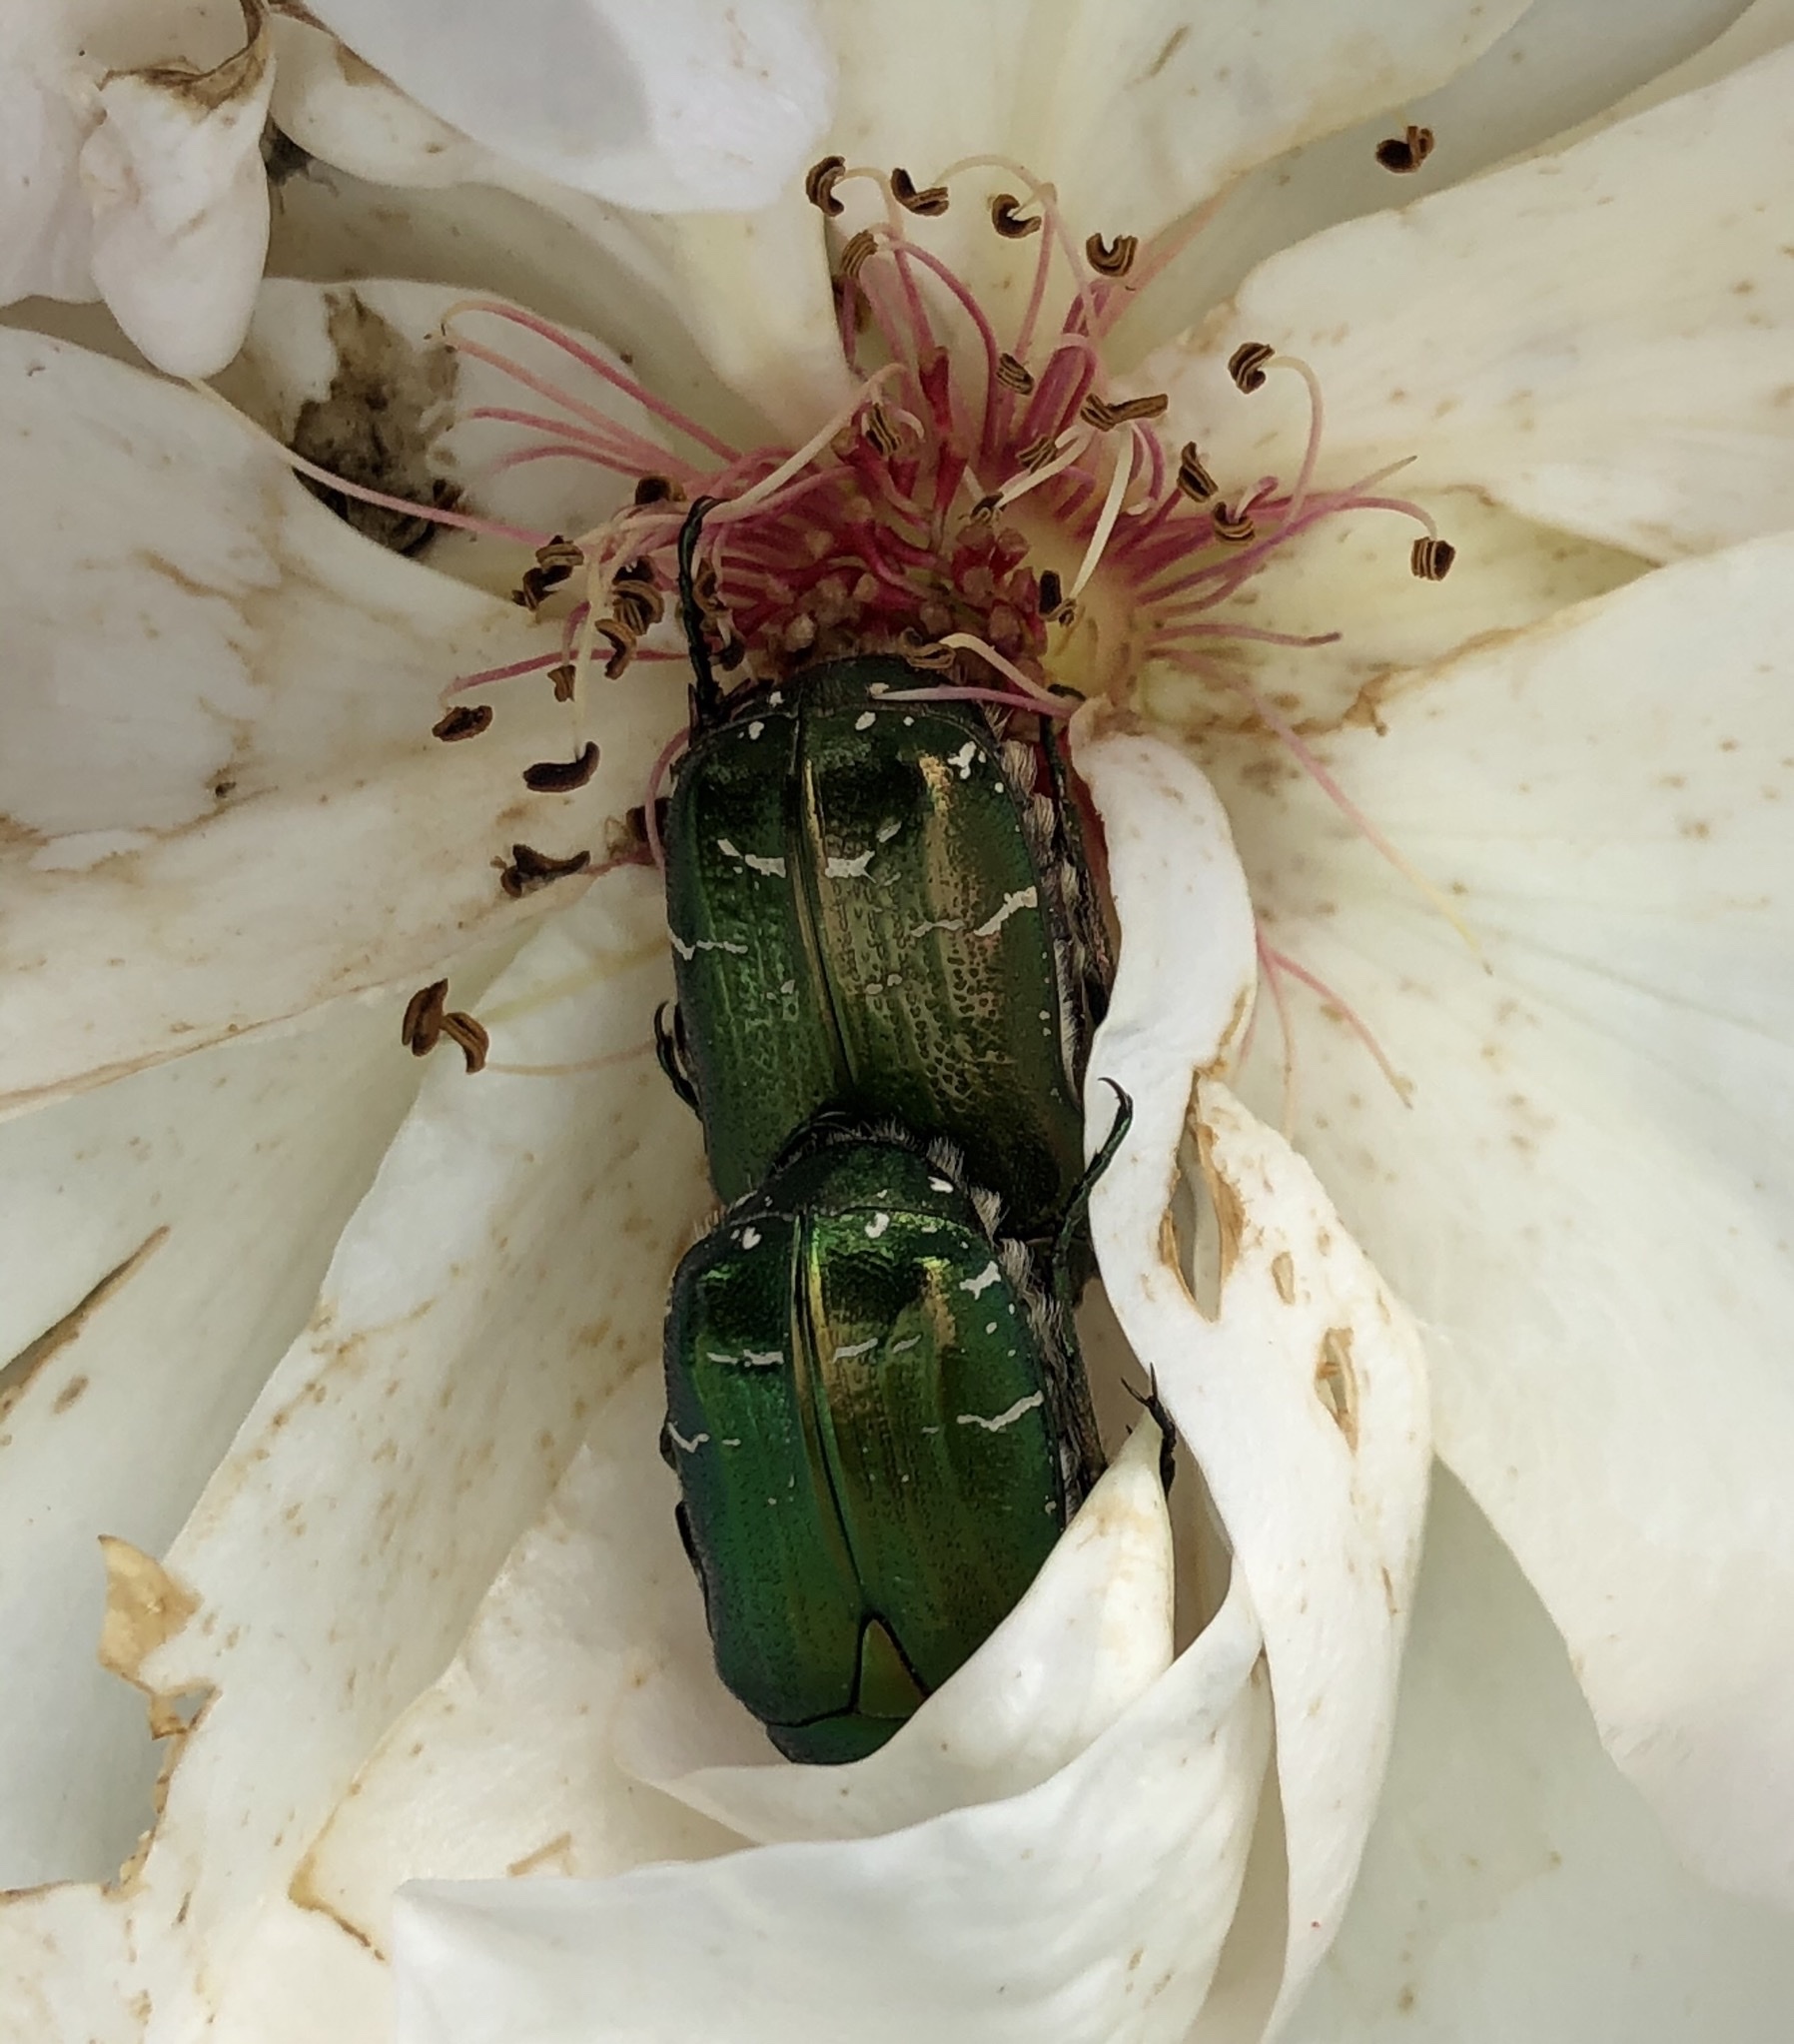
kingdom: Animalia
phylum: Arthropoda
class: Insecta
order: Coleoptera
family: Scarabaeidae
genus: Cetonia
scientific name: Cetonia
